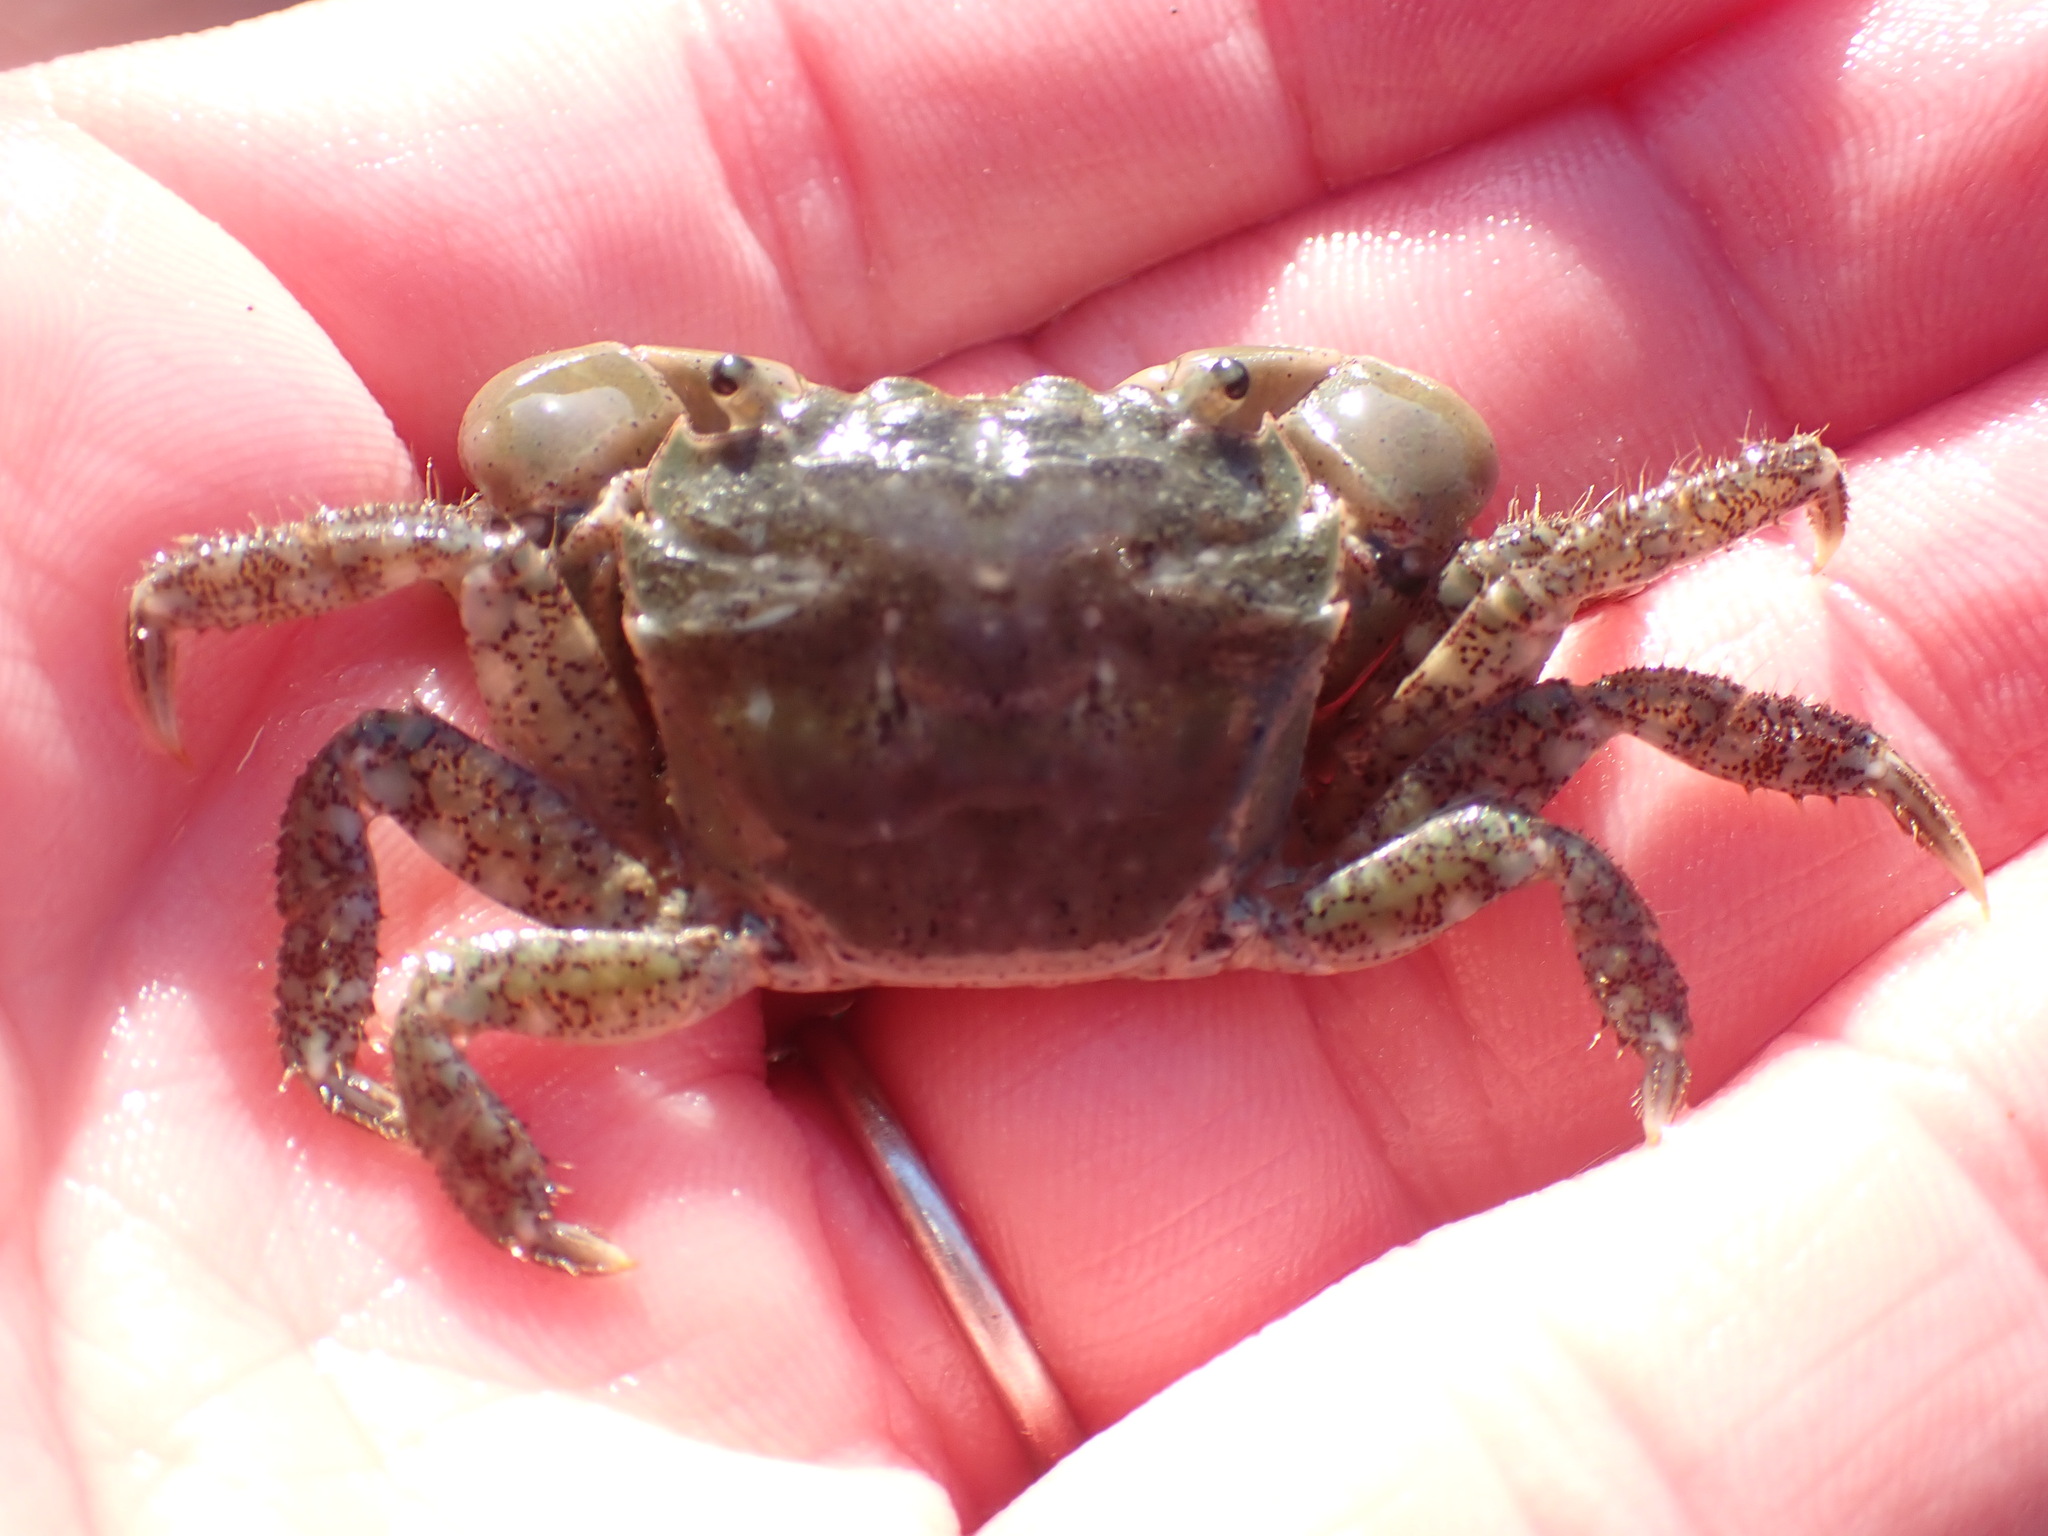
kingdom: Animalia
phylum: Arthropoda
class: Malacostraca
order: Decapoda
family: Varunidae
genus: Hemigrapsus
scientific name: Hemigrapsus oregonensis
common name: Yellow shore crab
